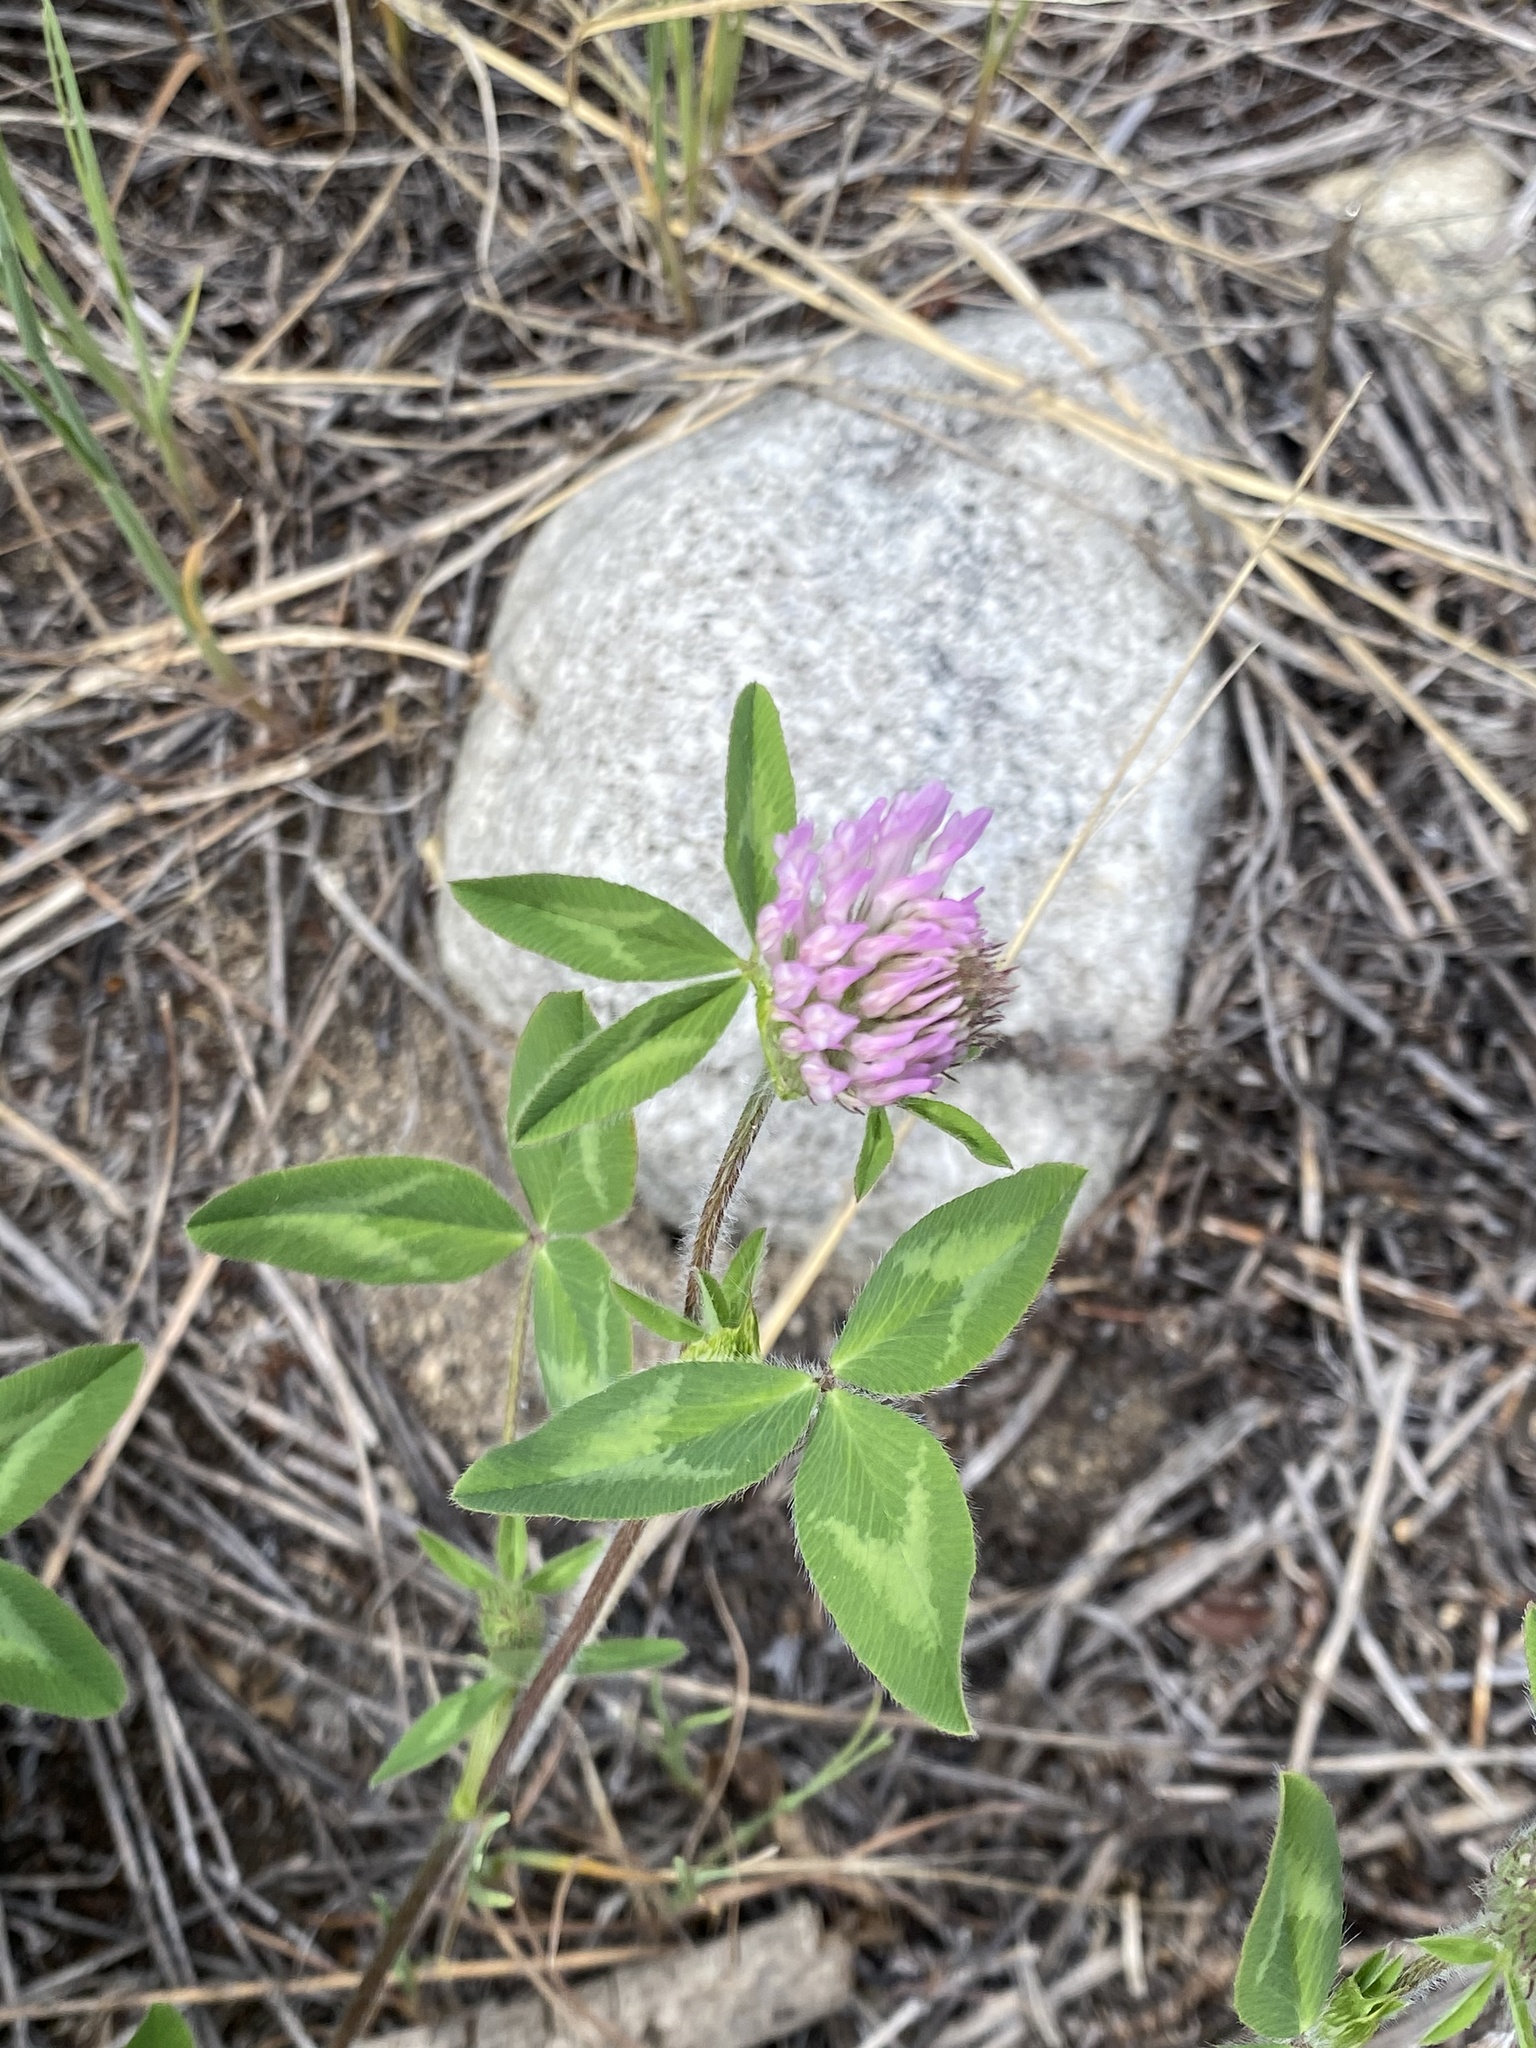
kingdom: Plantae
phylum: Tracheophyta
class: Magnoliopsida
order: Fabales
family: Fabaceae
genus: Trifolium
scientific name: Trifolium pratense
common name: Red clover
